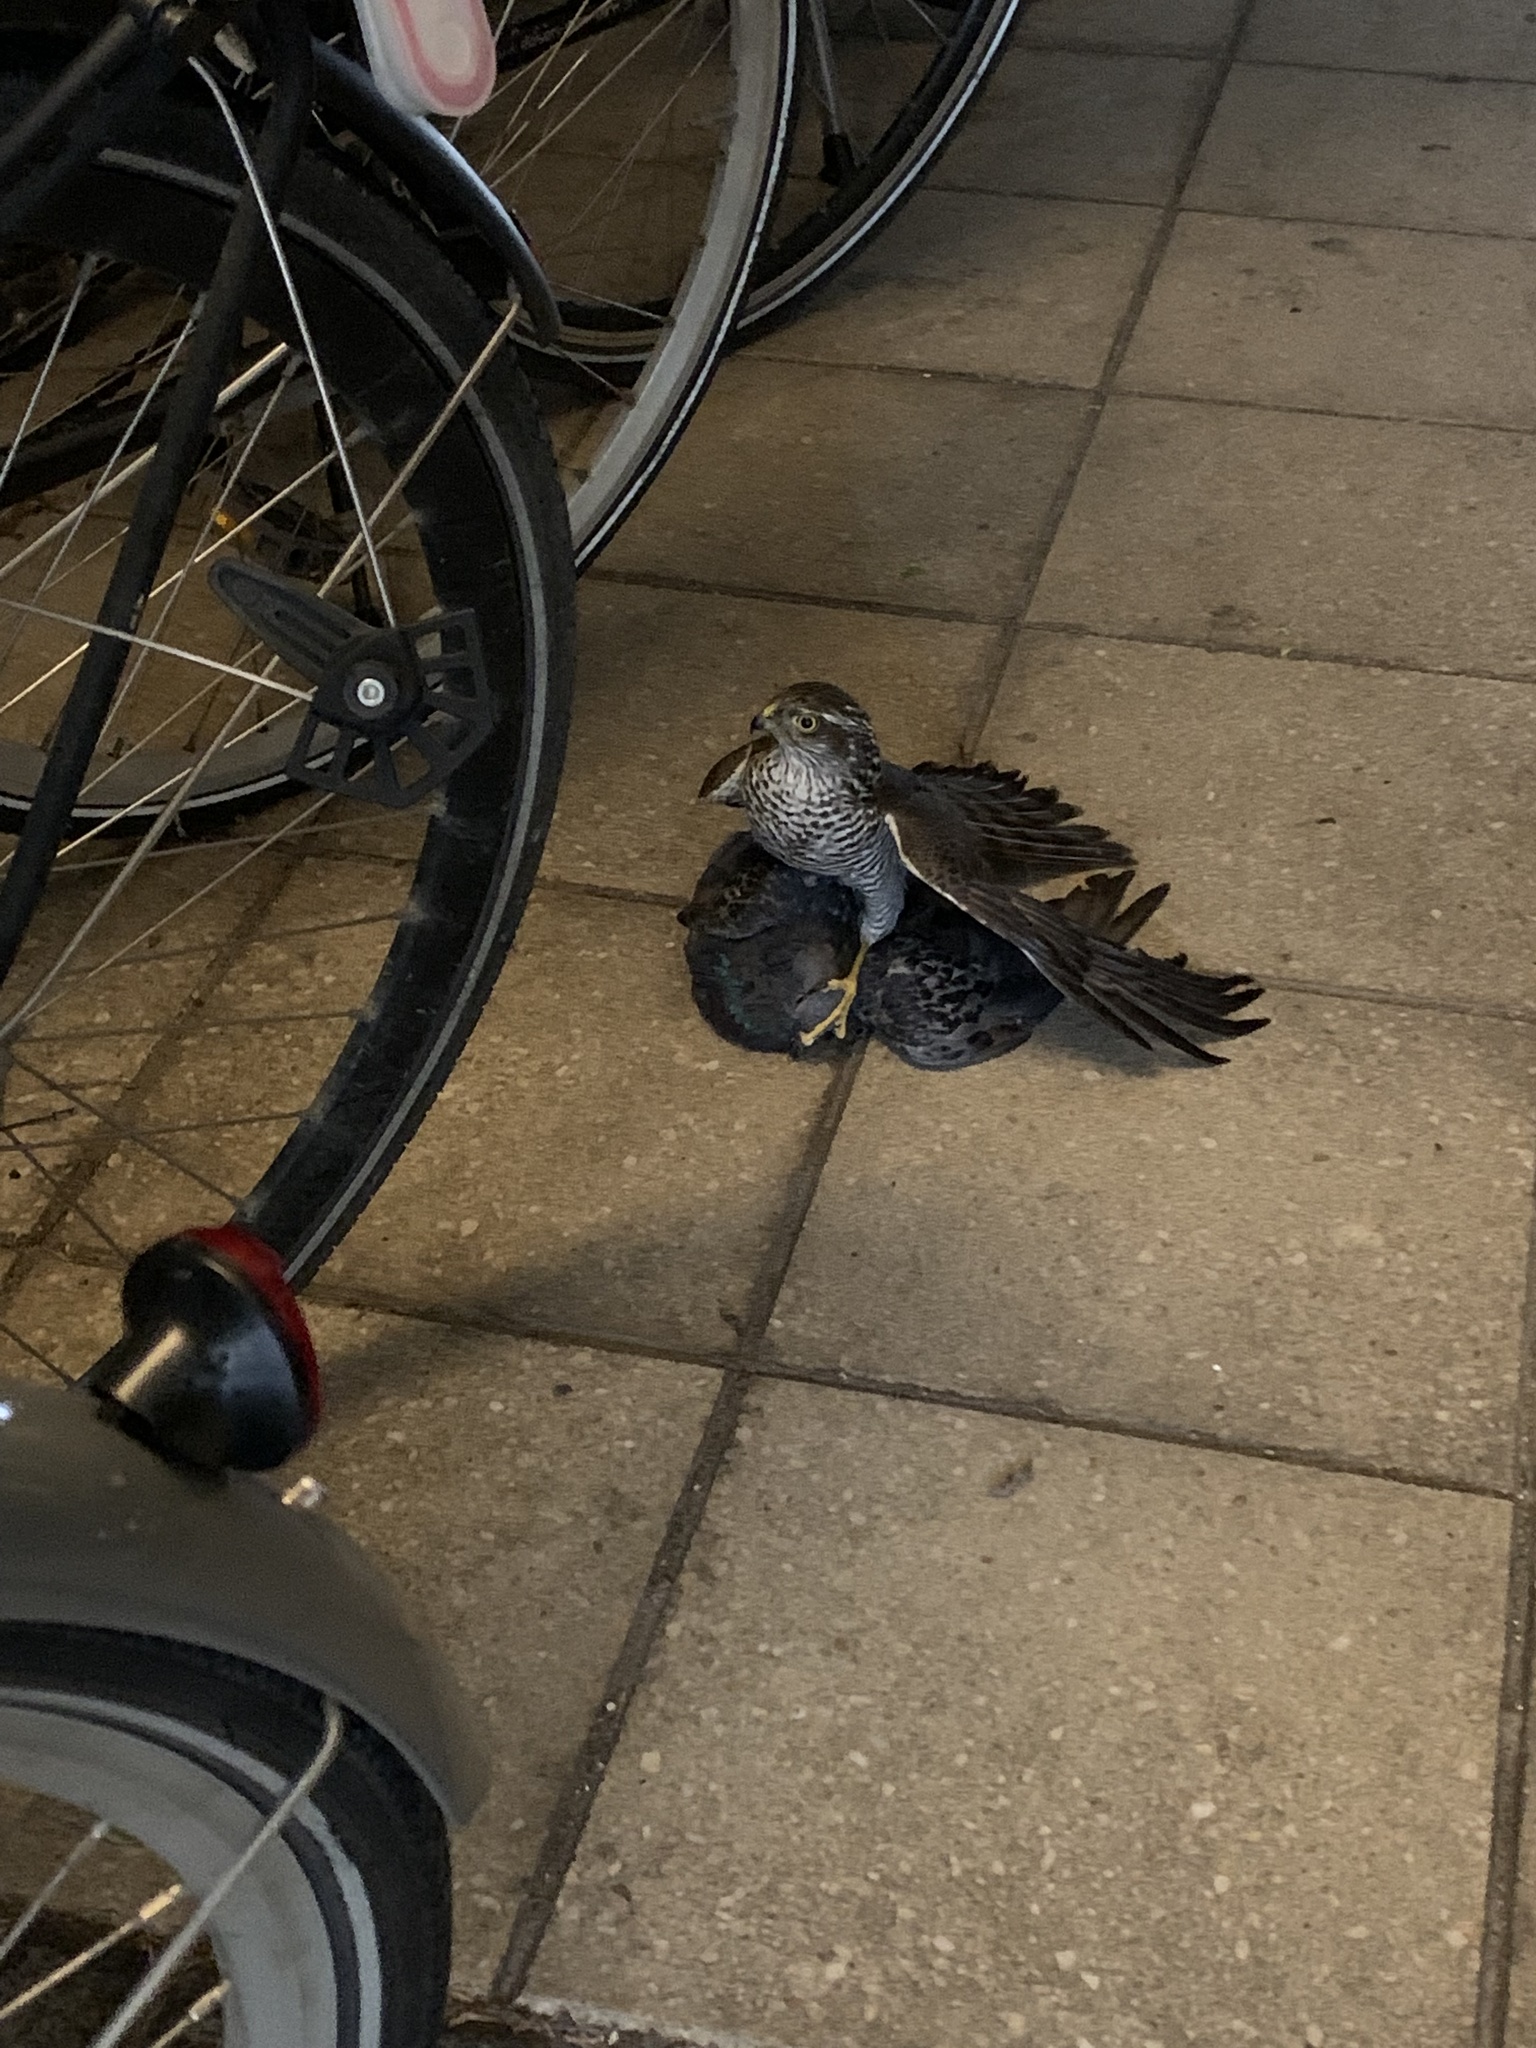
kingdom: Animalia
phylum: Chordata
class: Aves
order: Accipitriformes
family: Accipitridae
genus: Accipiter
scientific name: Accipiter nisus
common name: Eurasian sparrowhawk
